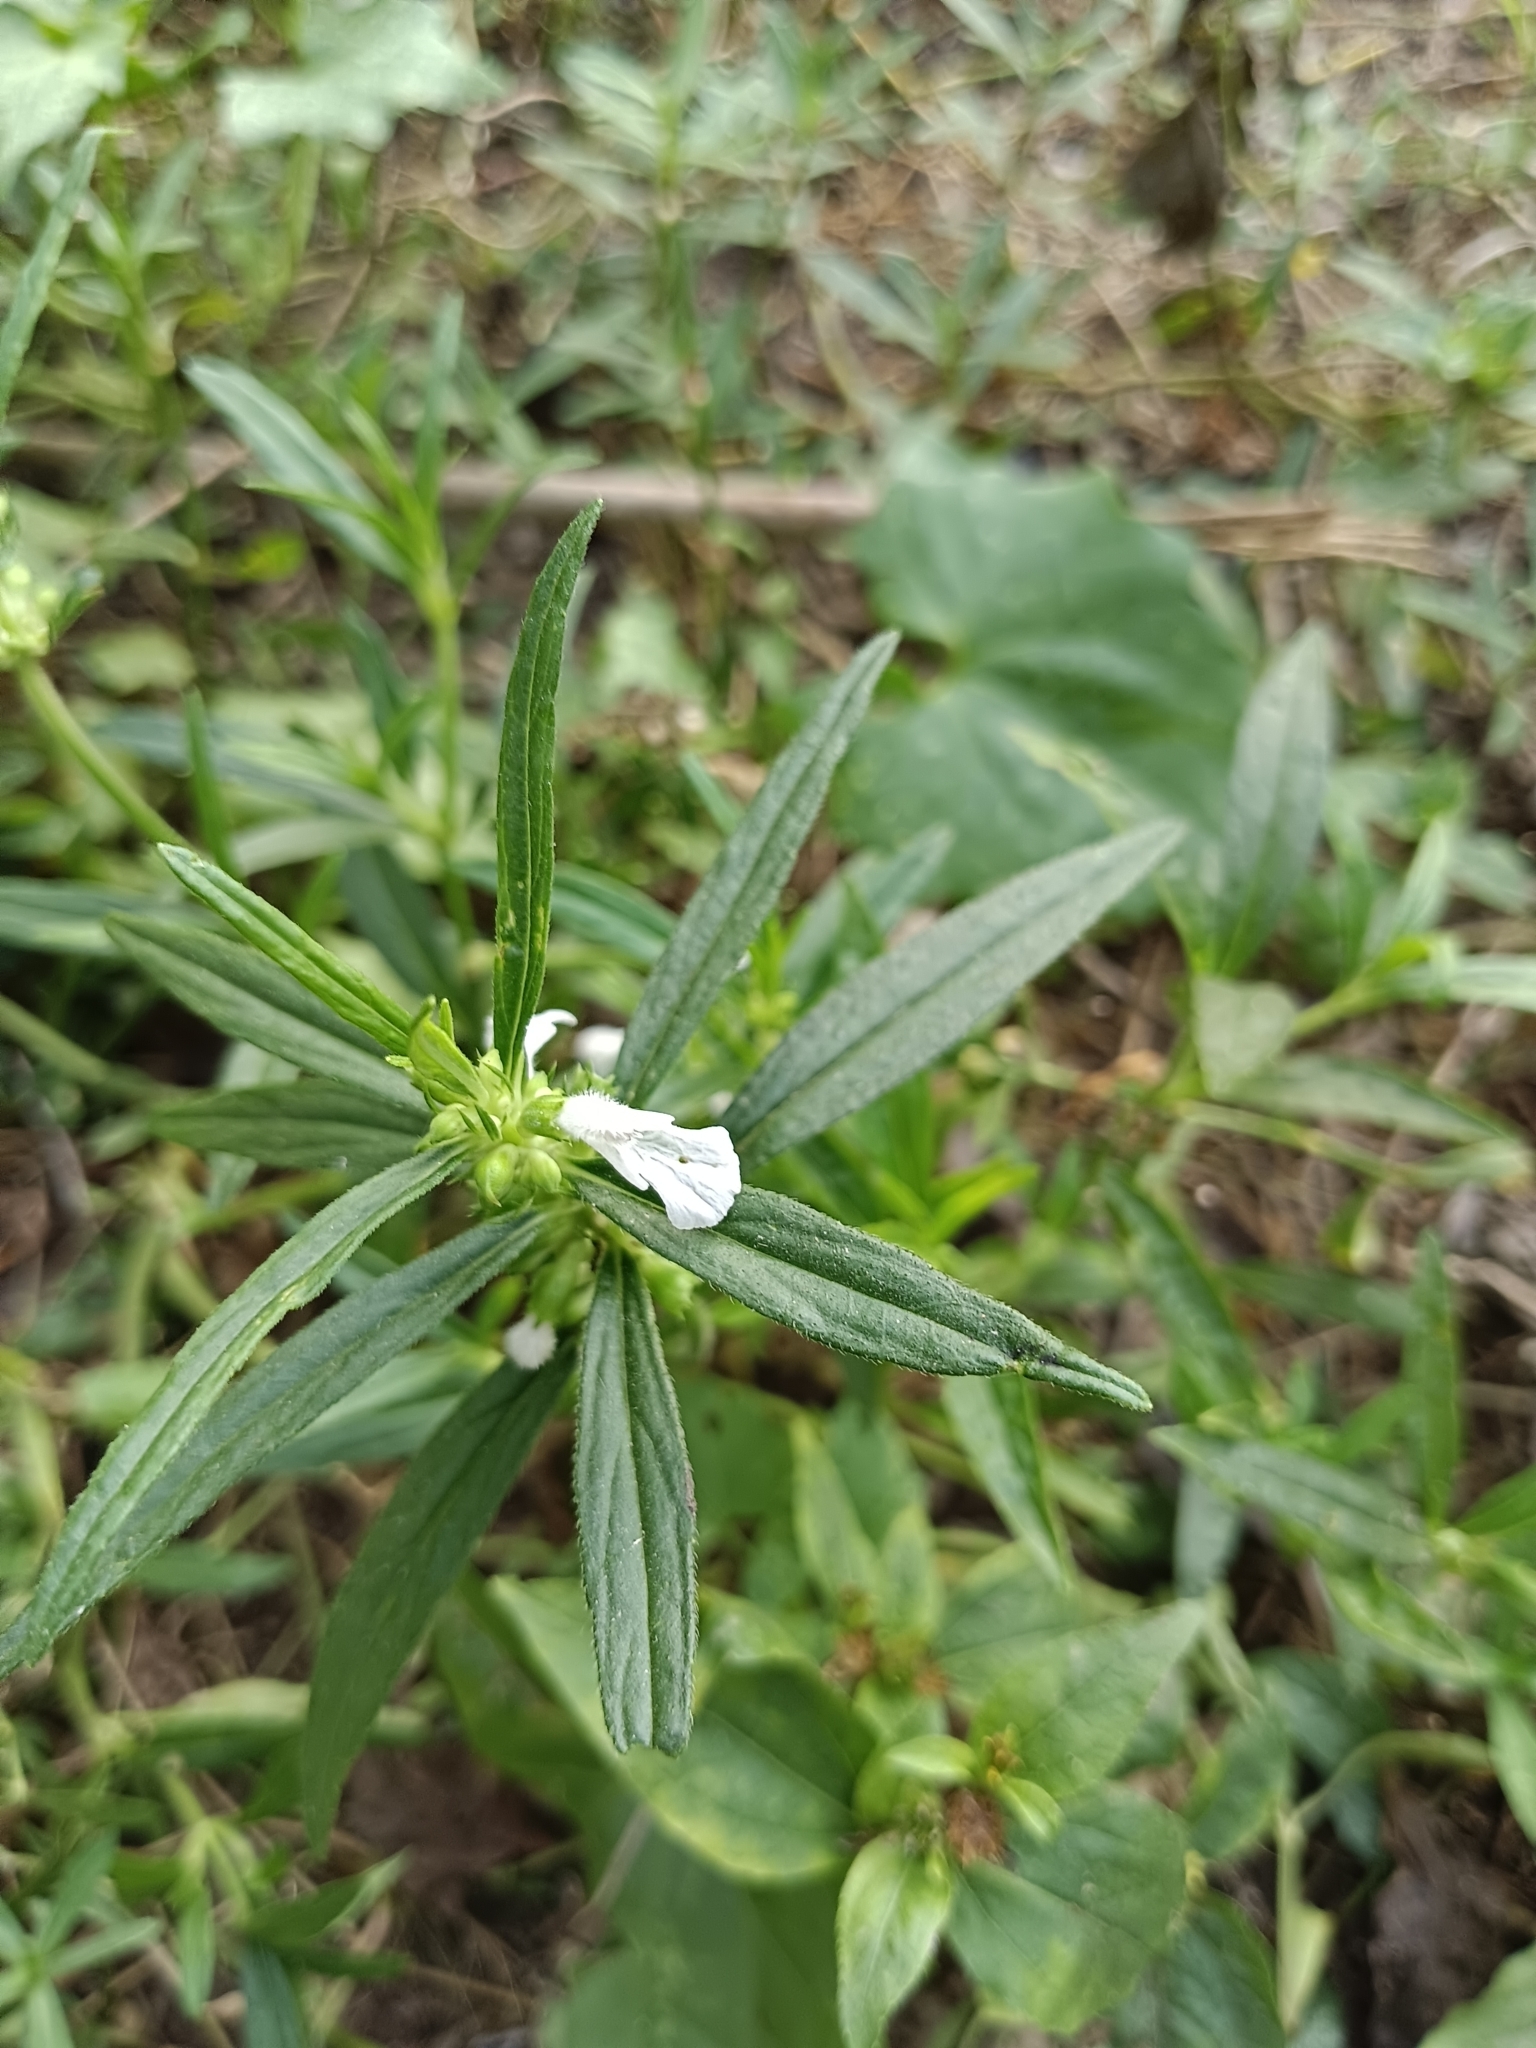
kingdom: Plantae
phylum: Tracheophyta
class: Magnoliopsida
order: Lamiales
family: Lamiaceae
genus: Leucas
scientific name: Leucas aspera
